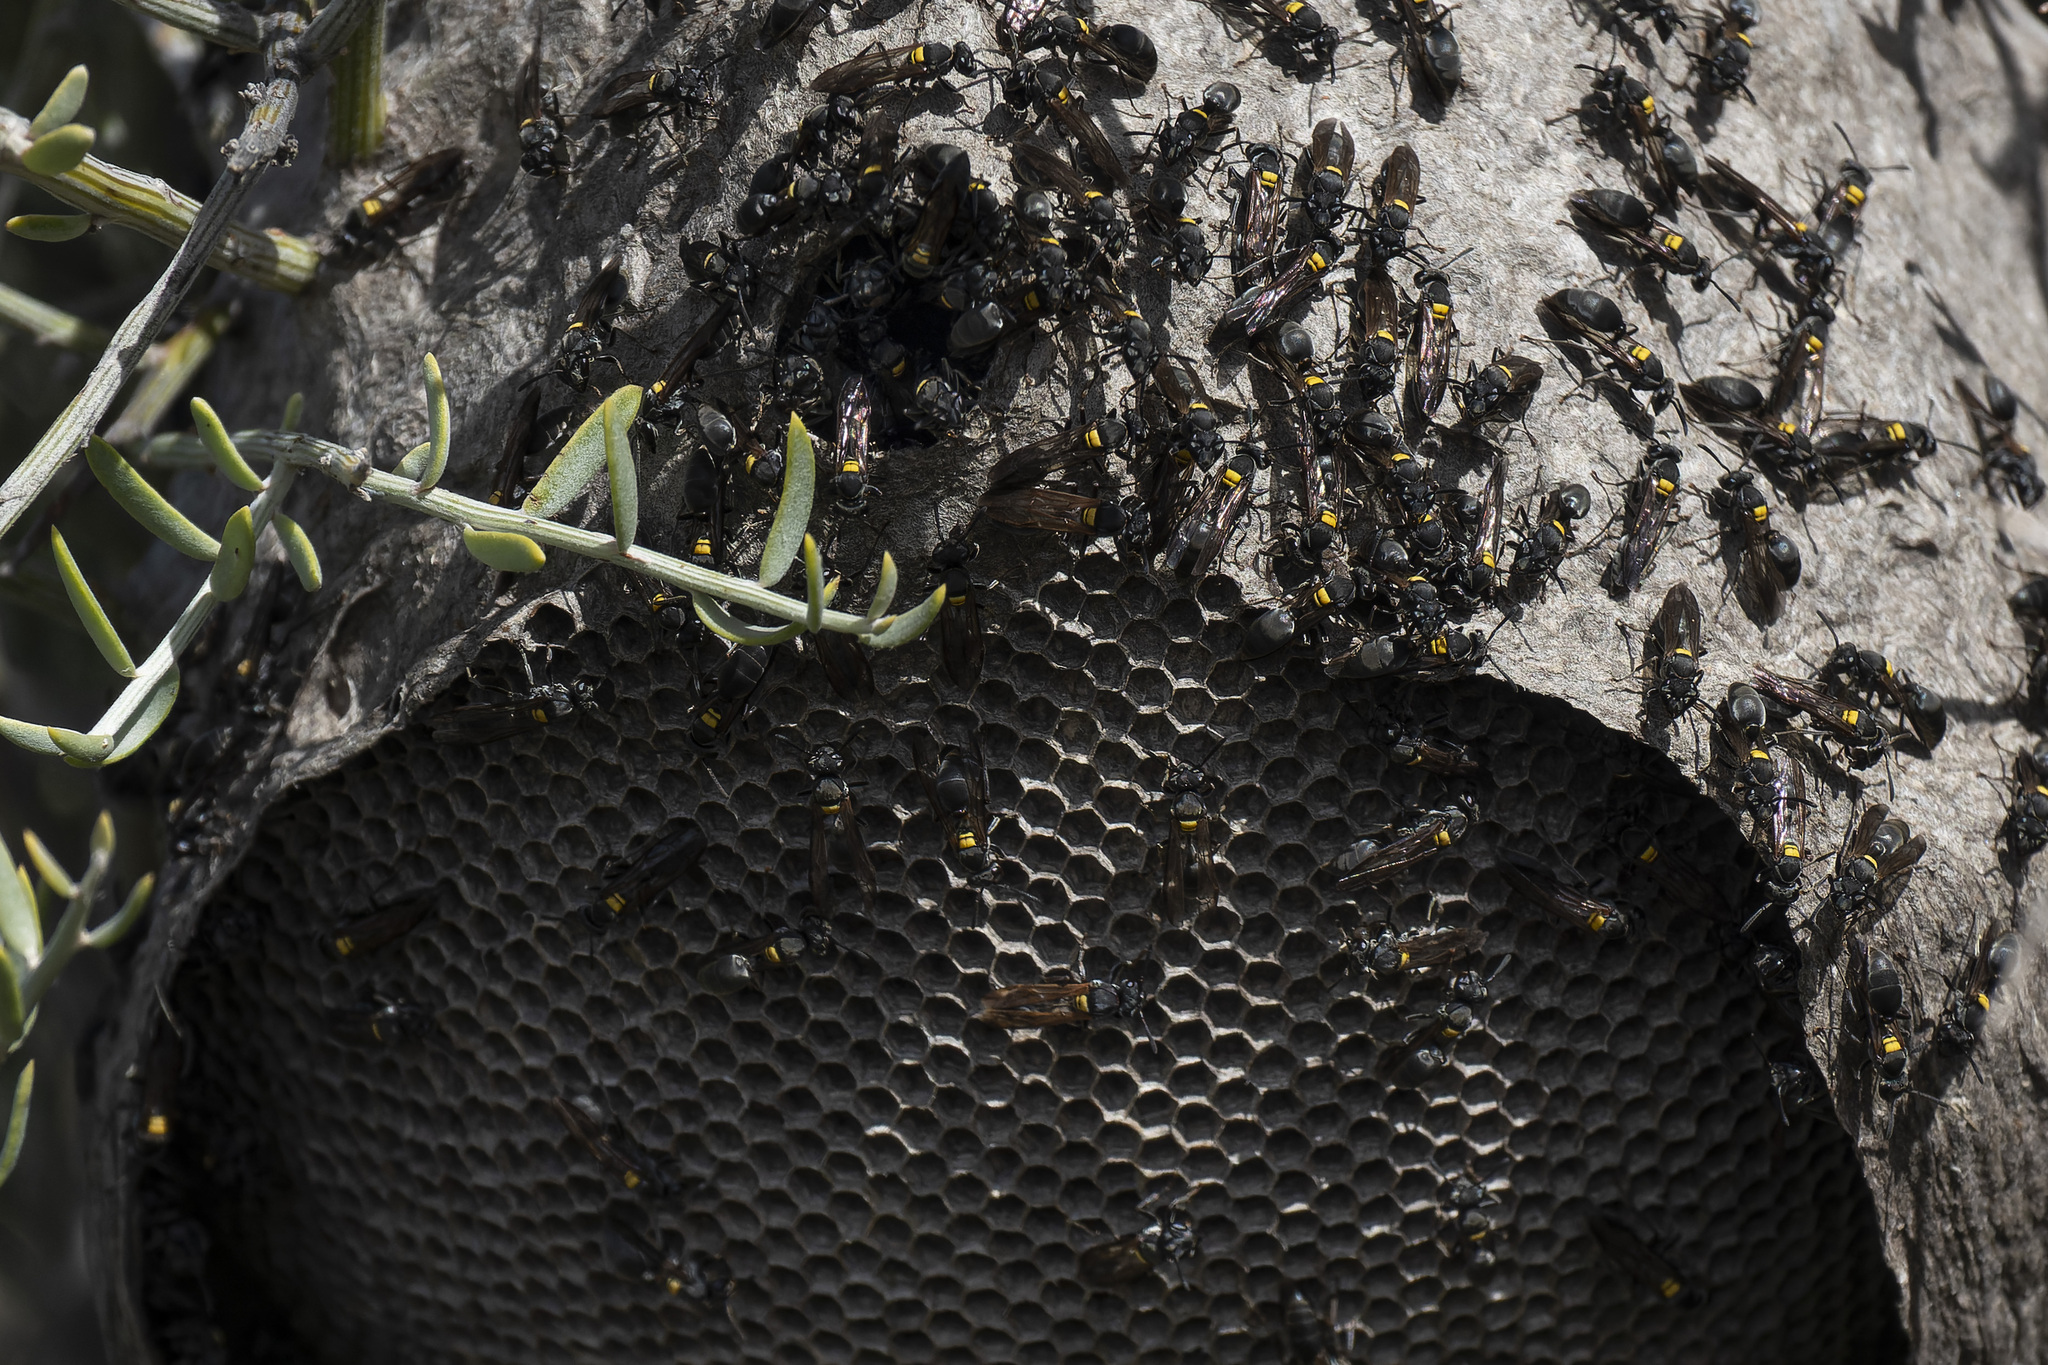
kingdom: Animalia
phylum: Arthropoda
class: Insecta
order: Hymenoptera
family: Eumenidae
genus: Polybia
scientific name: Polybia scutellaris
